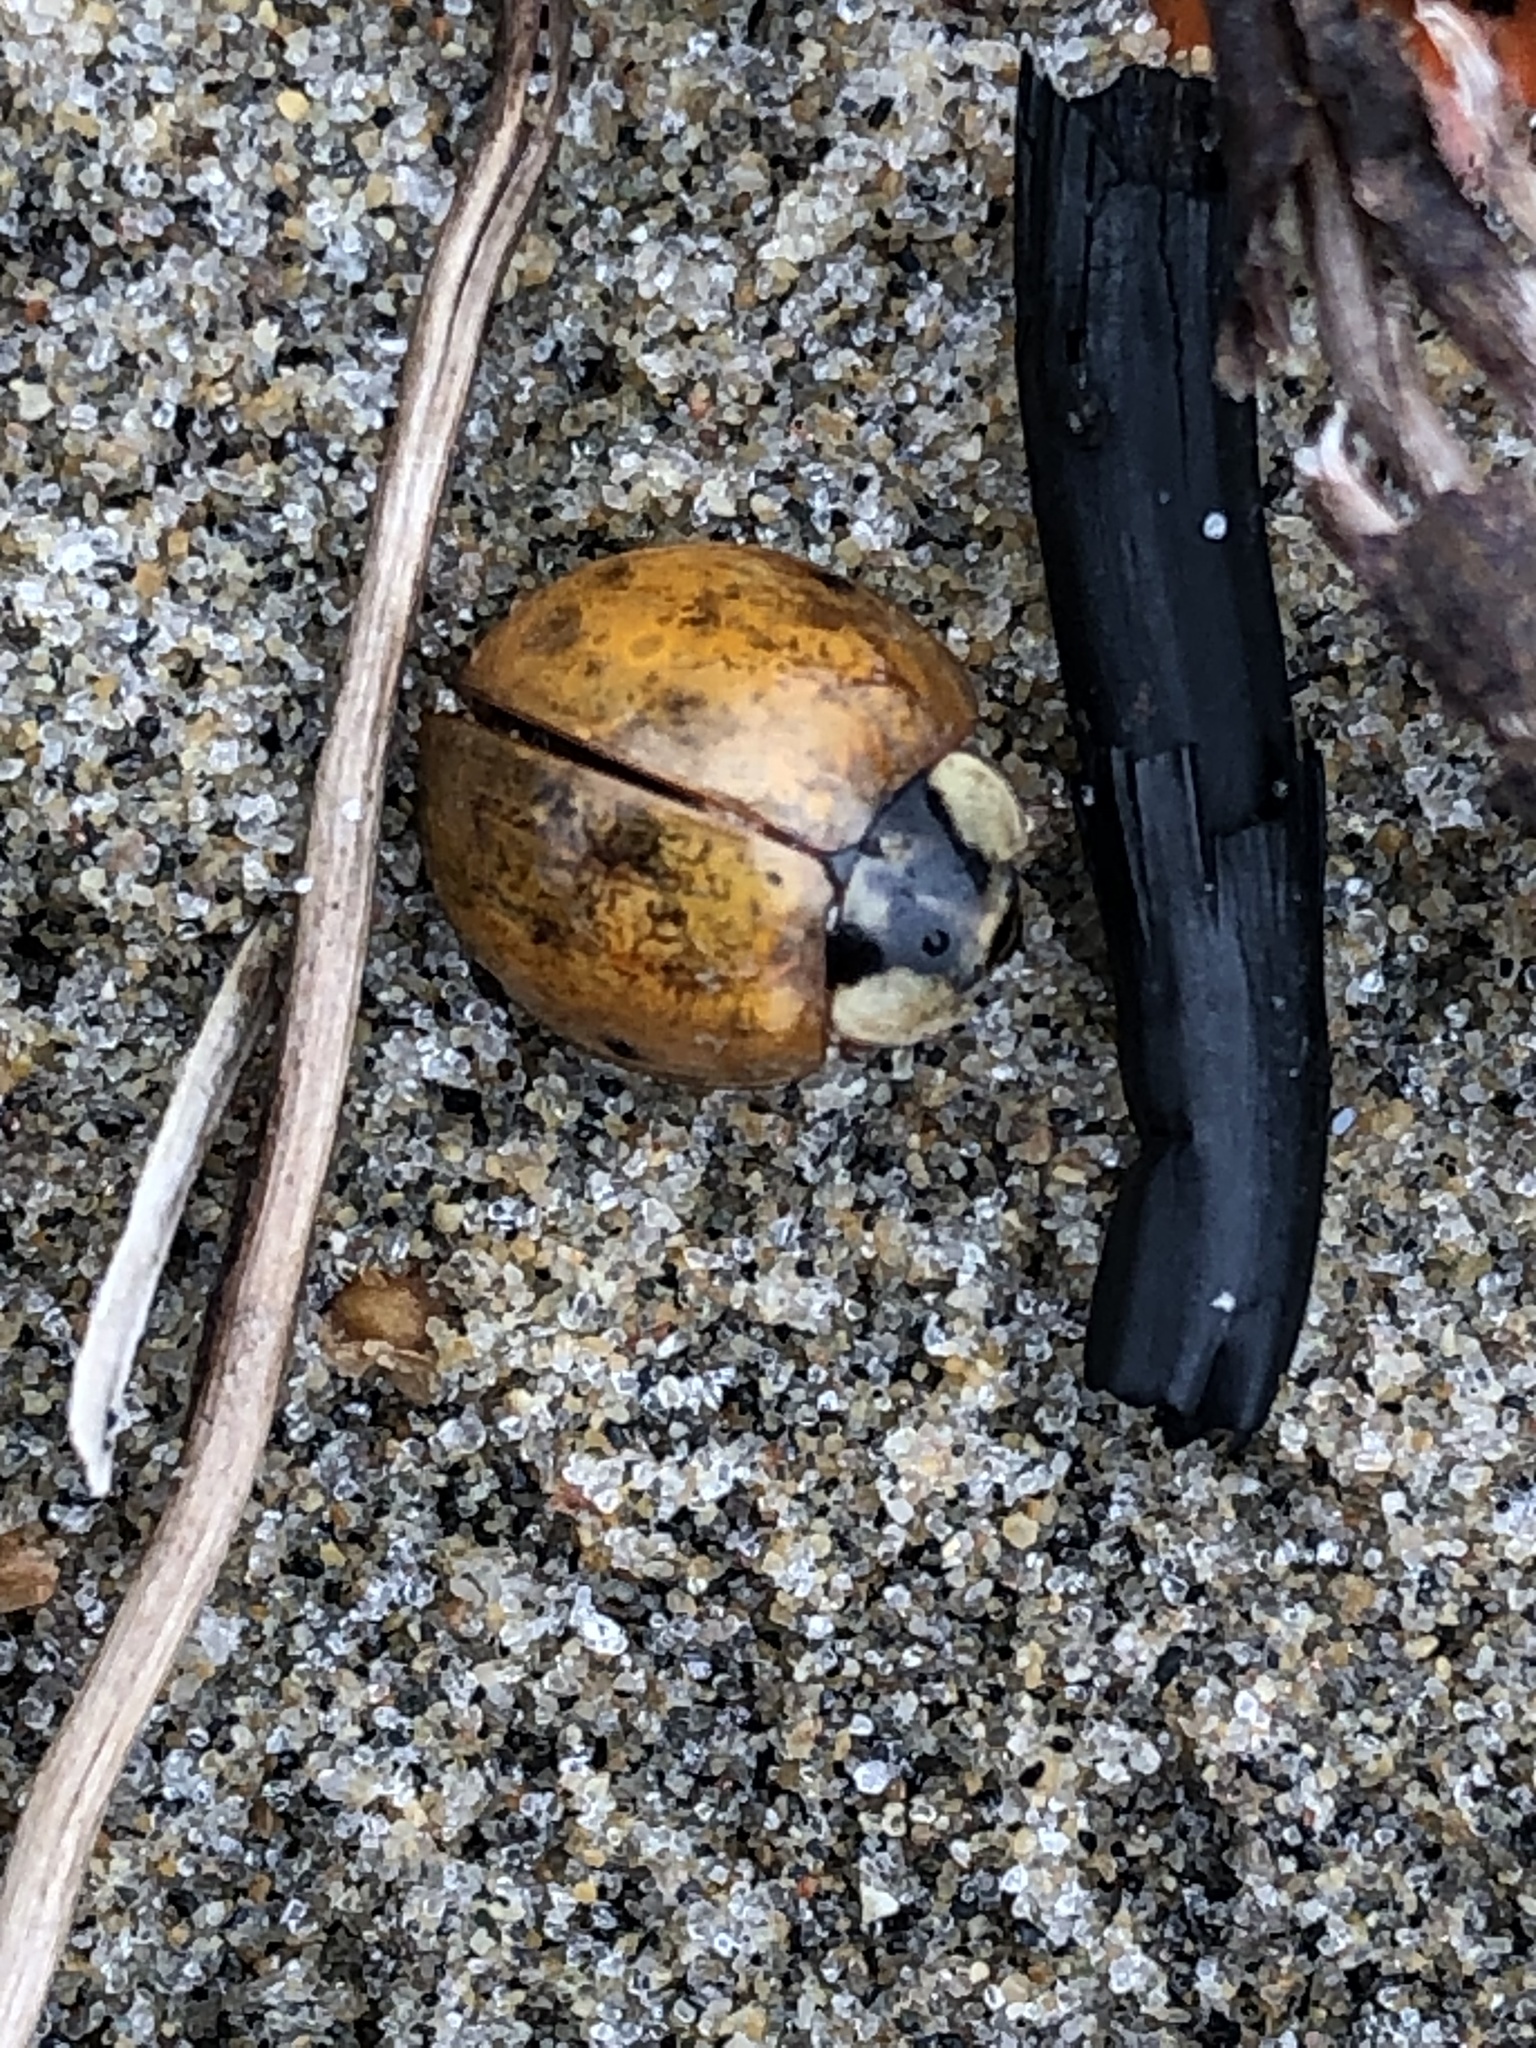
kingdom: Animalia
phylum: Arthropoda
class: Insecta
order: Coleoptera
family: Coccinellidae
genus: Harmonia
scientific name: Harmonia axyridis
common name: Harlequin ladybird
